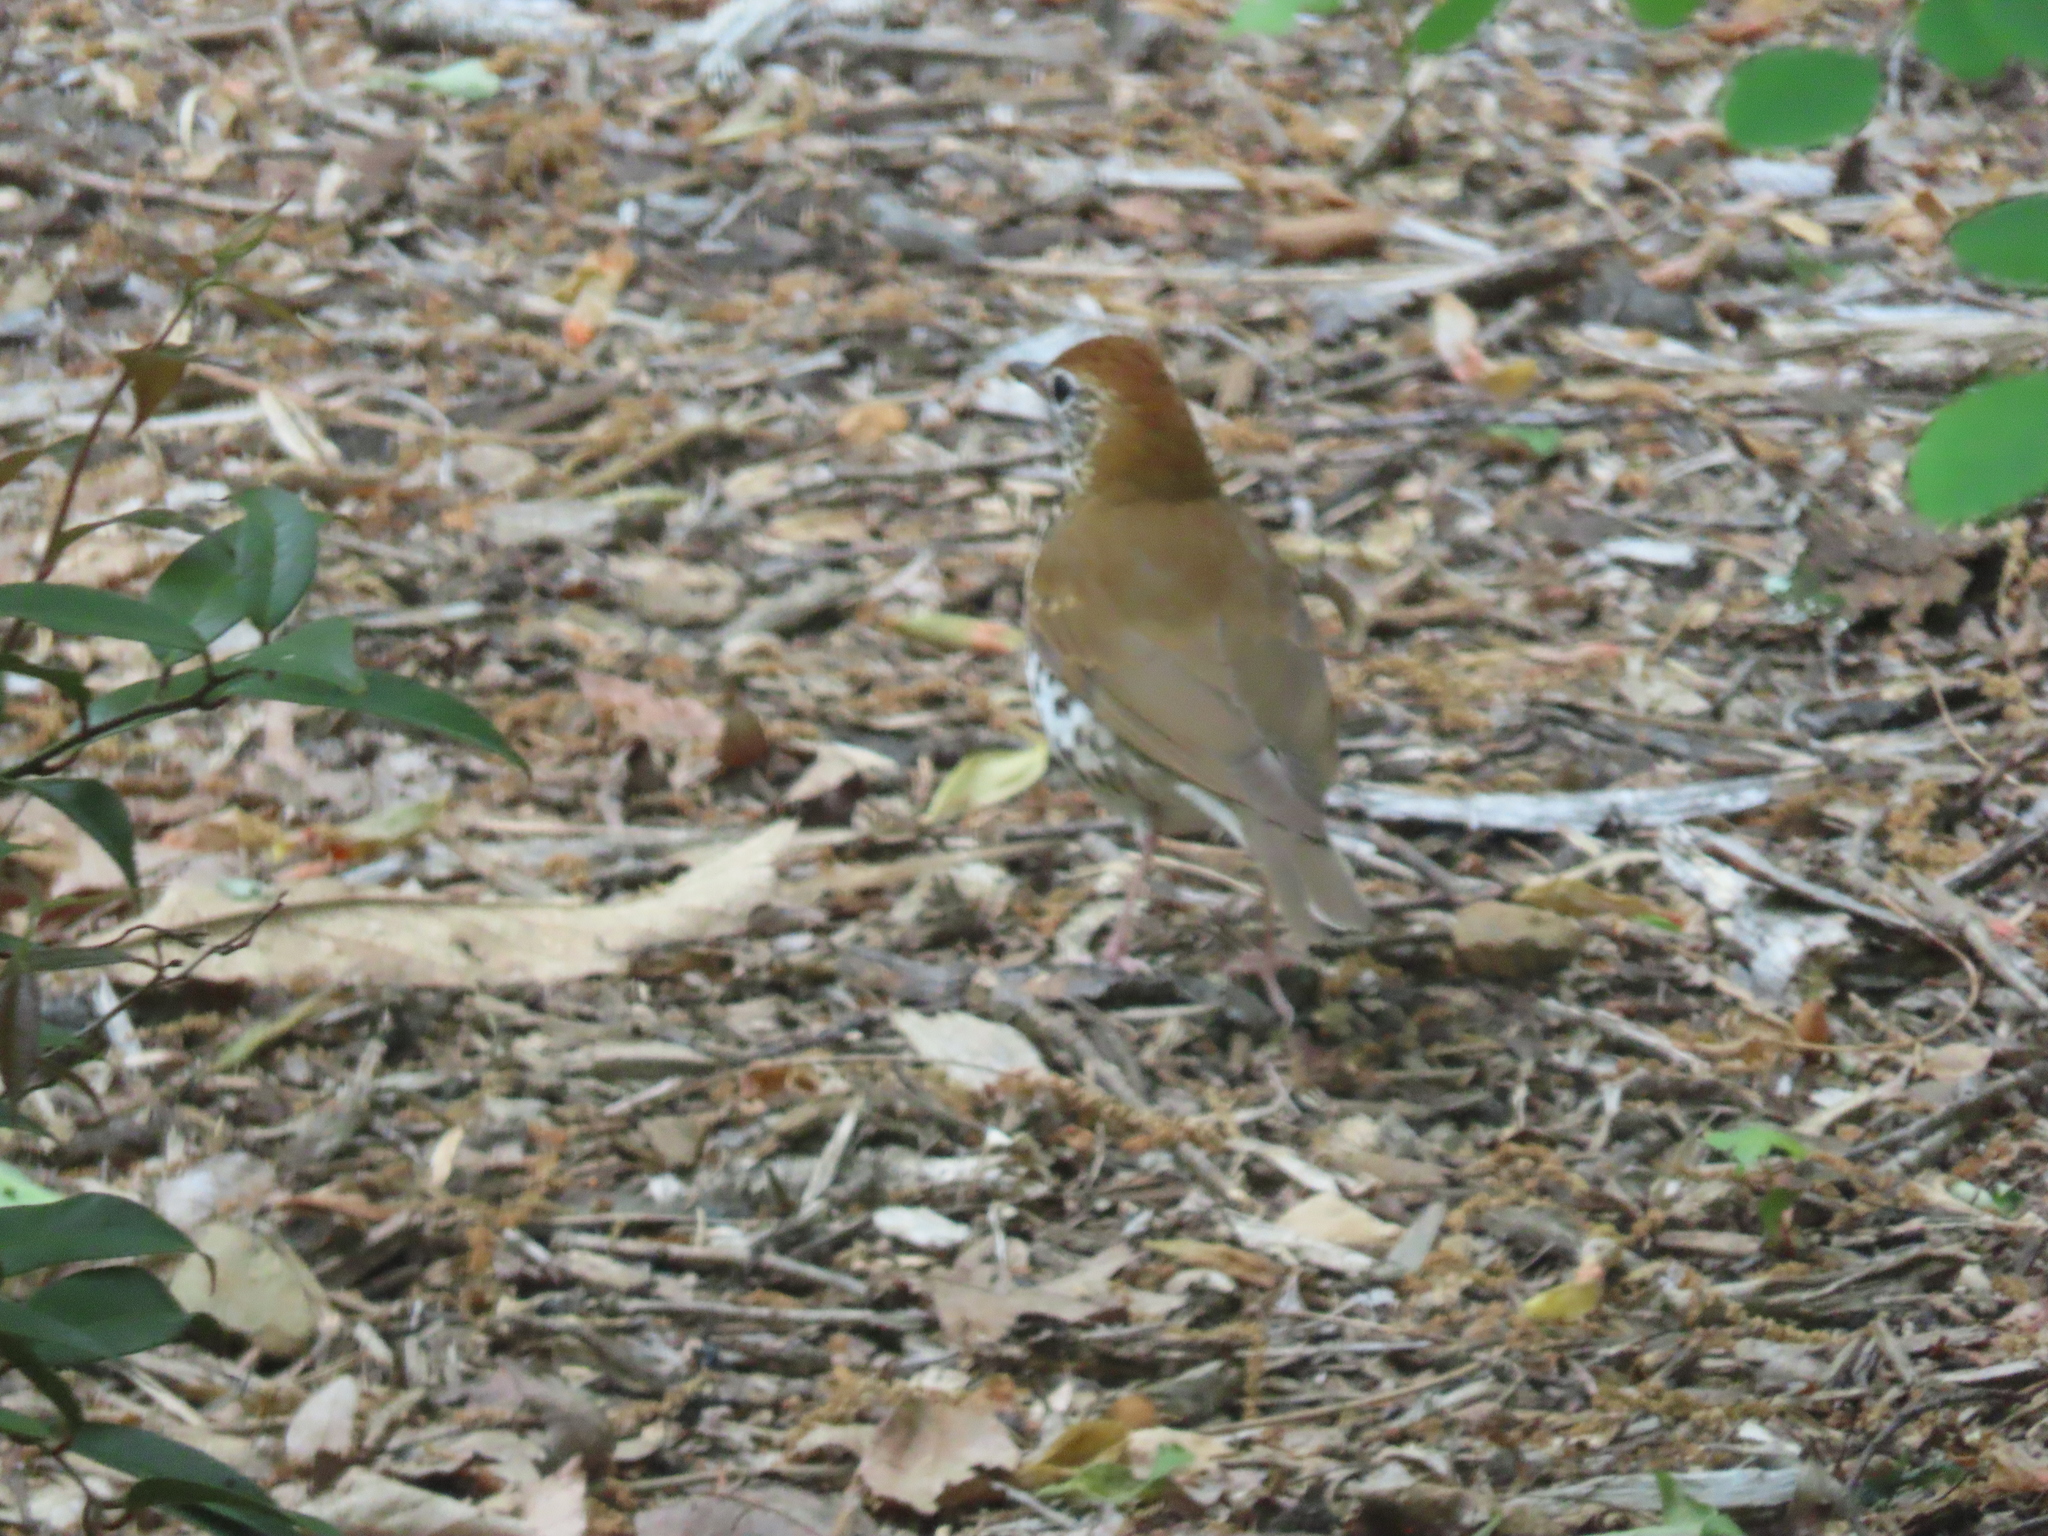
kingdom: Animalia
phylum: Chordata
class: Aves
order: Passeriformes
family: Turdidae
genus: Hylocichla
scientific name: Hylocichla mustelina
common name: Wood thrush
